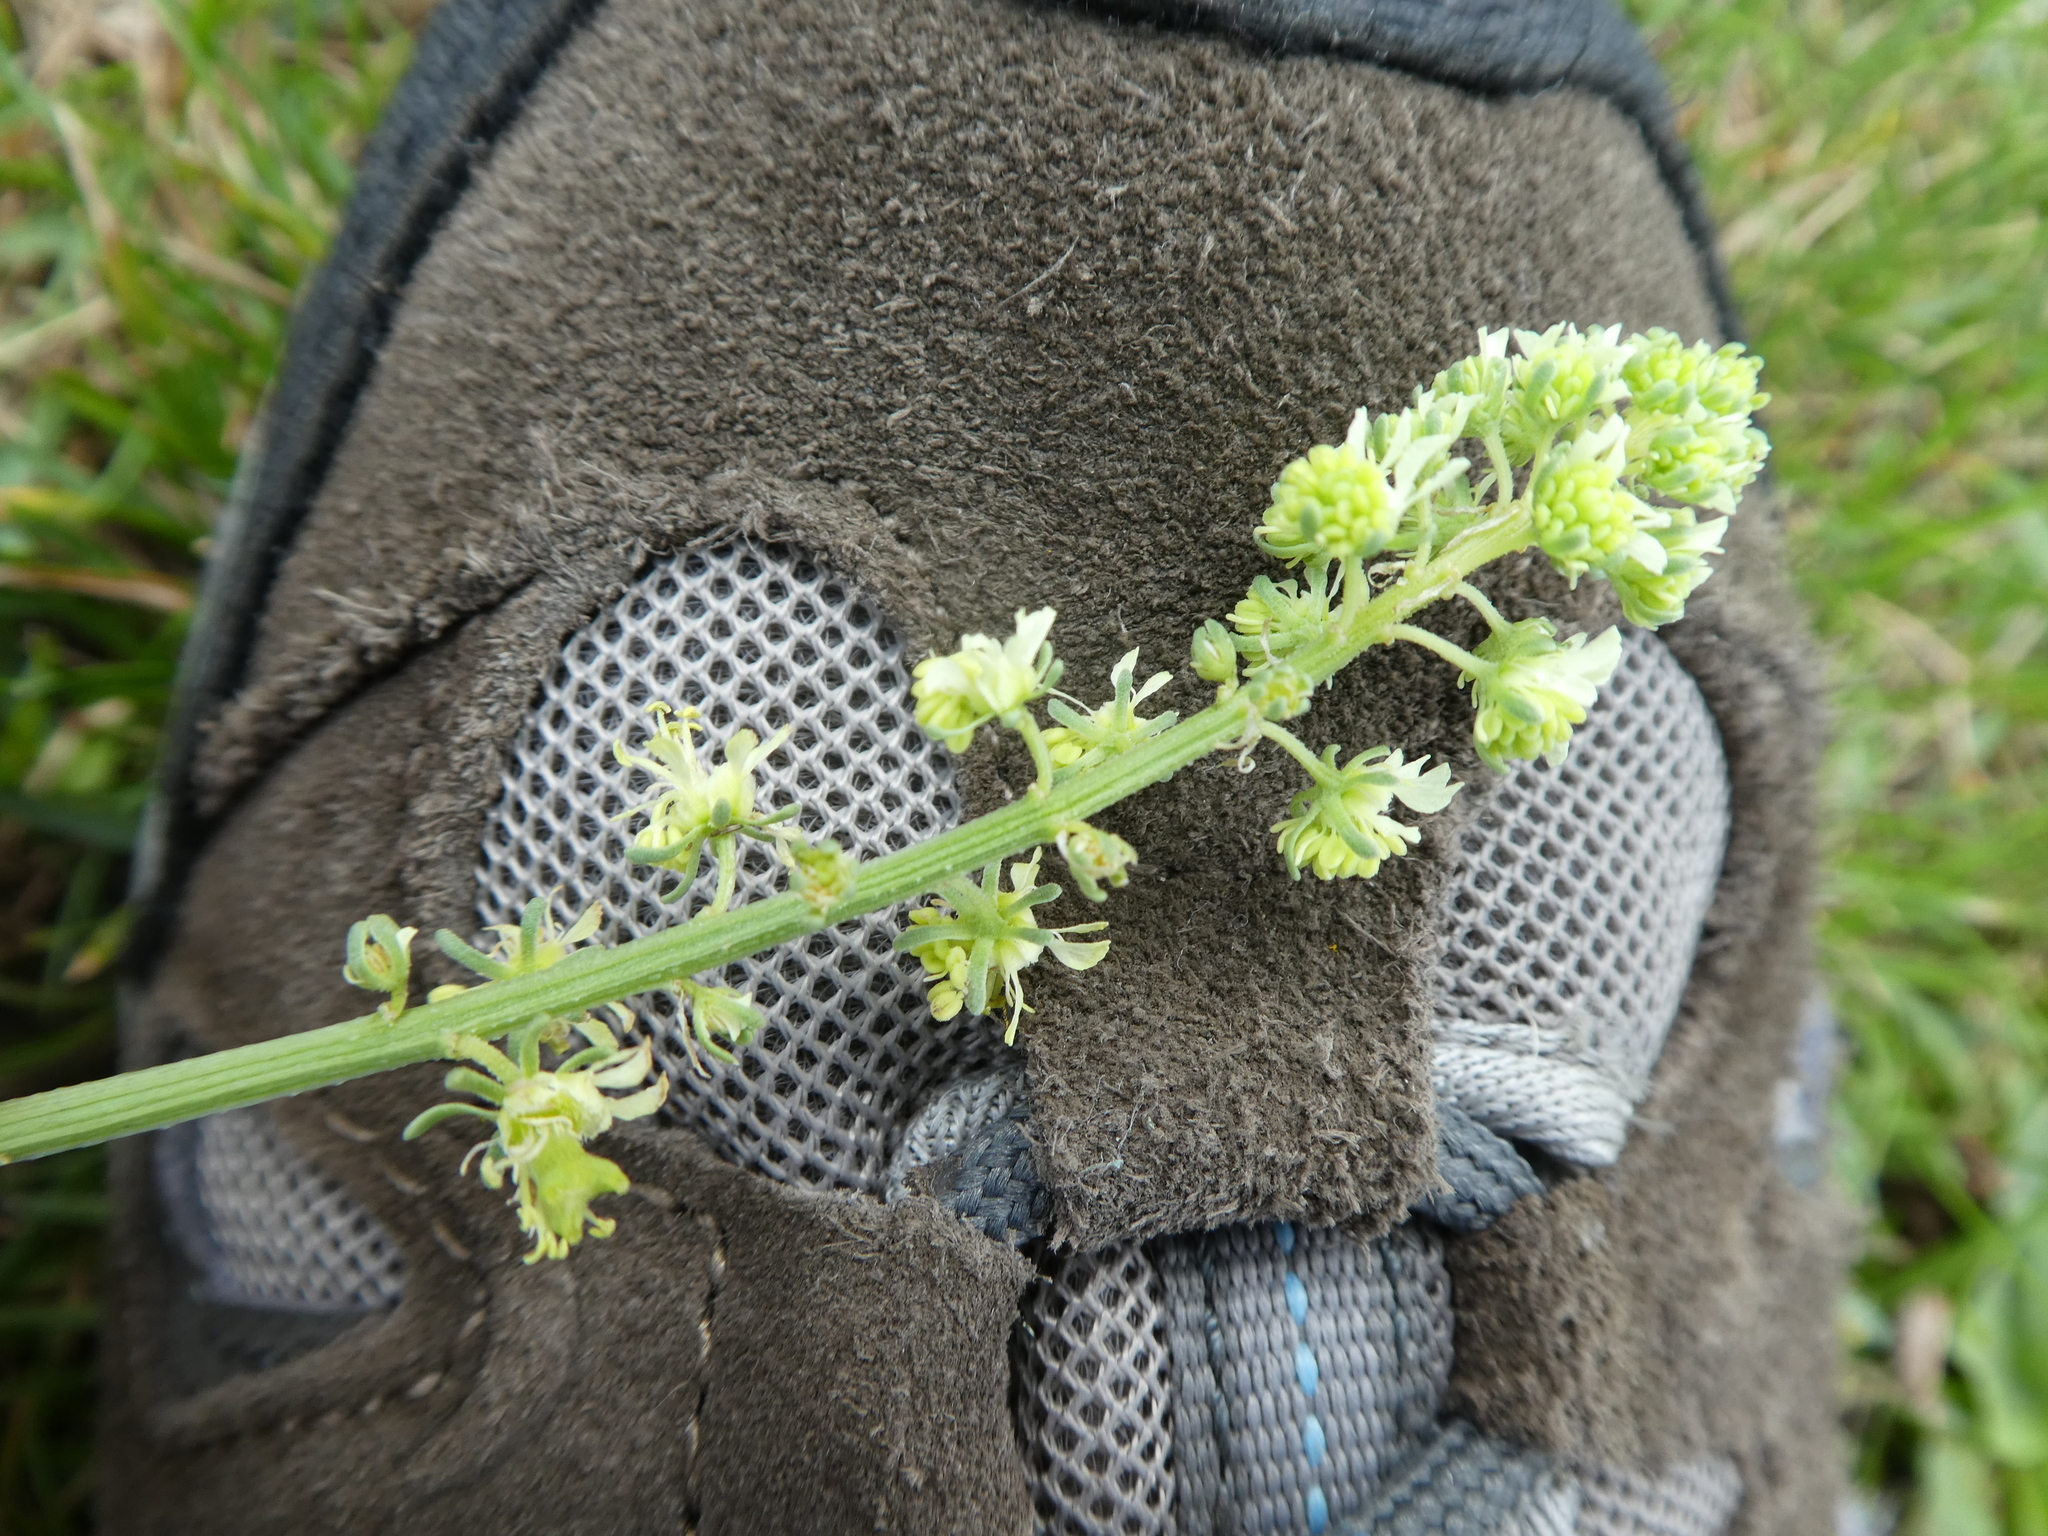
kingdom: Plantae
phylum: Tracheophyta
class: Magnoliopsida
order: Brassicales
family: Resedaceae
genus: Reseda
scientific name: Reseda lutea
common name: Wild mignonette
